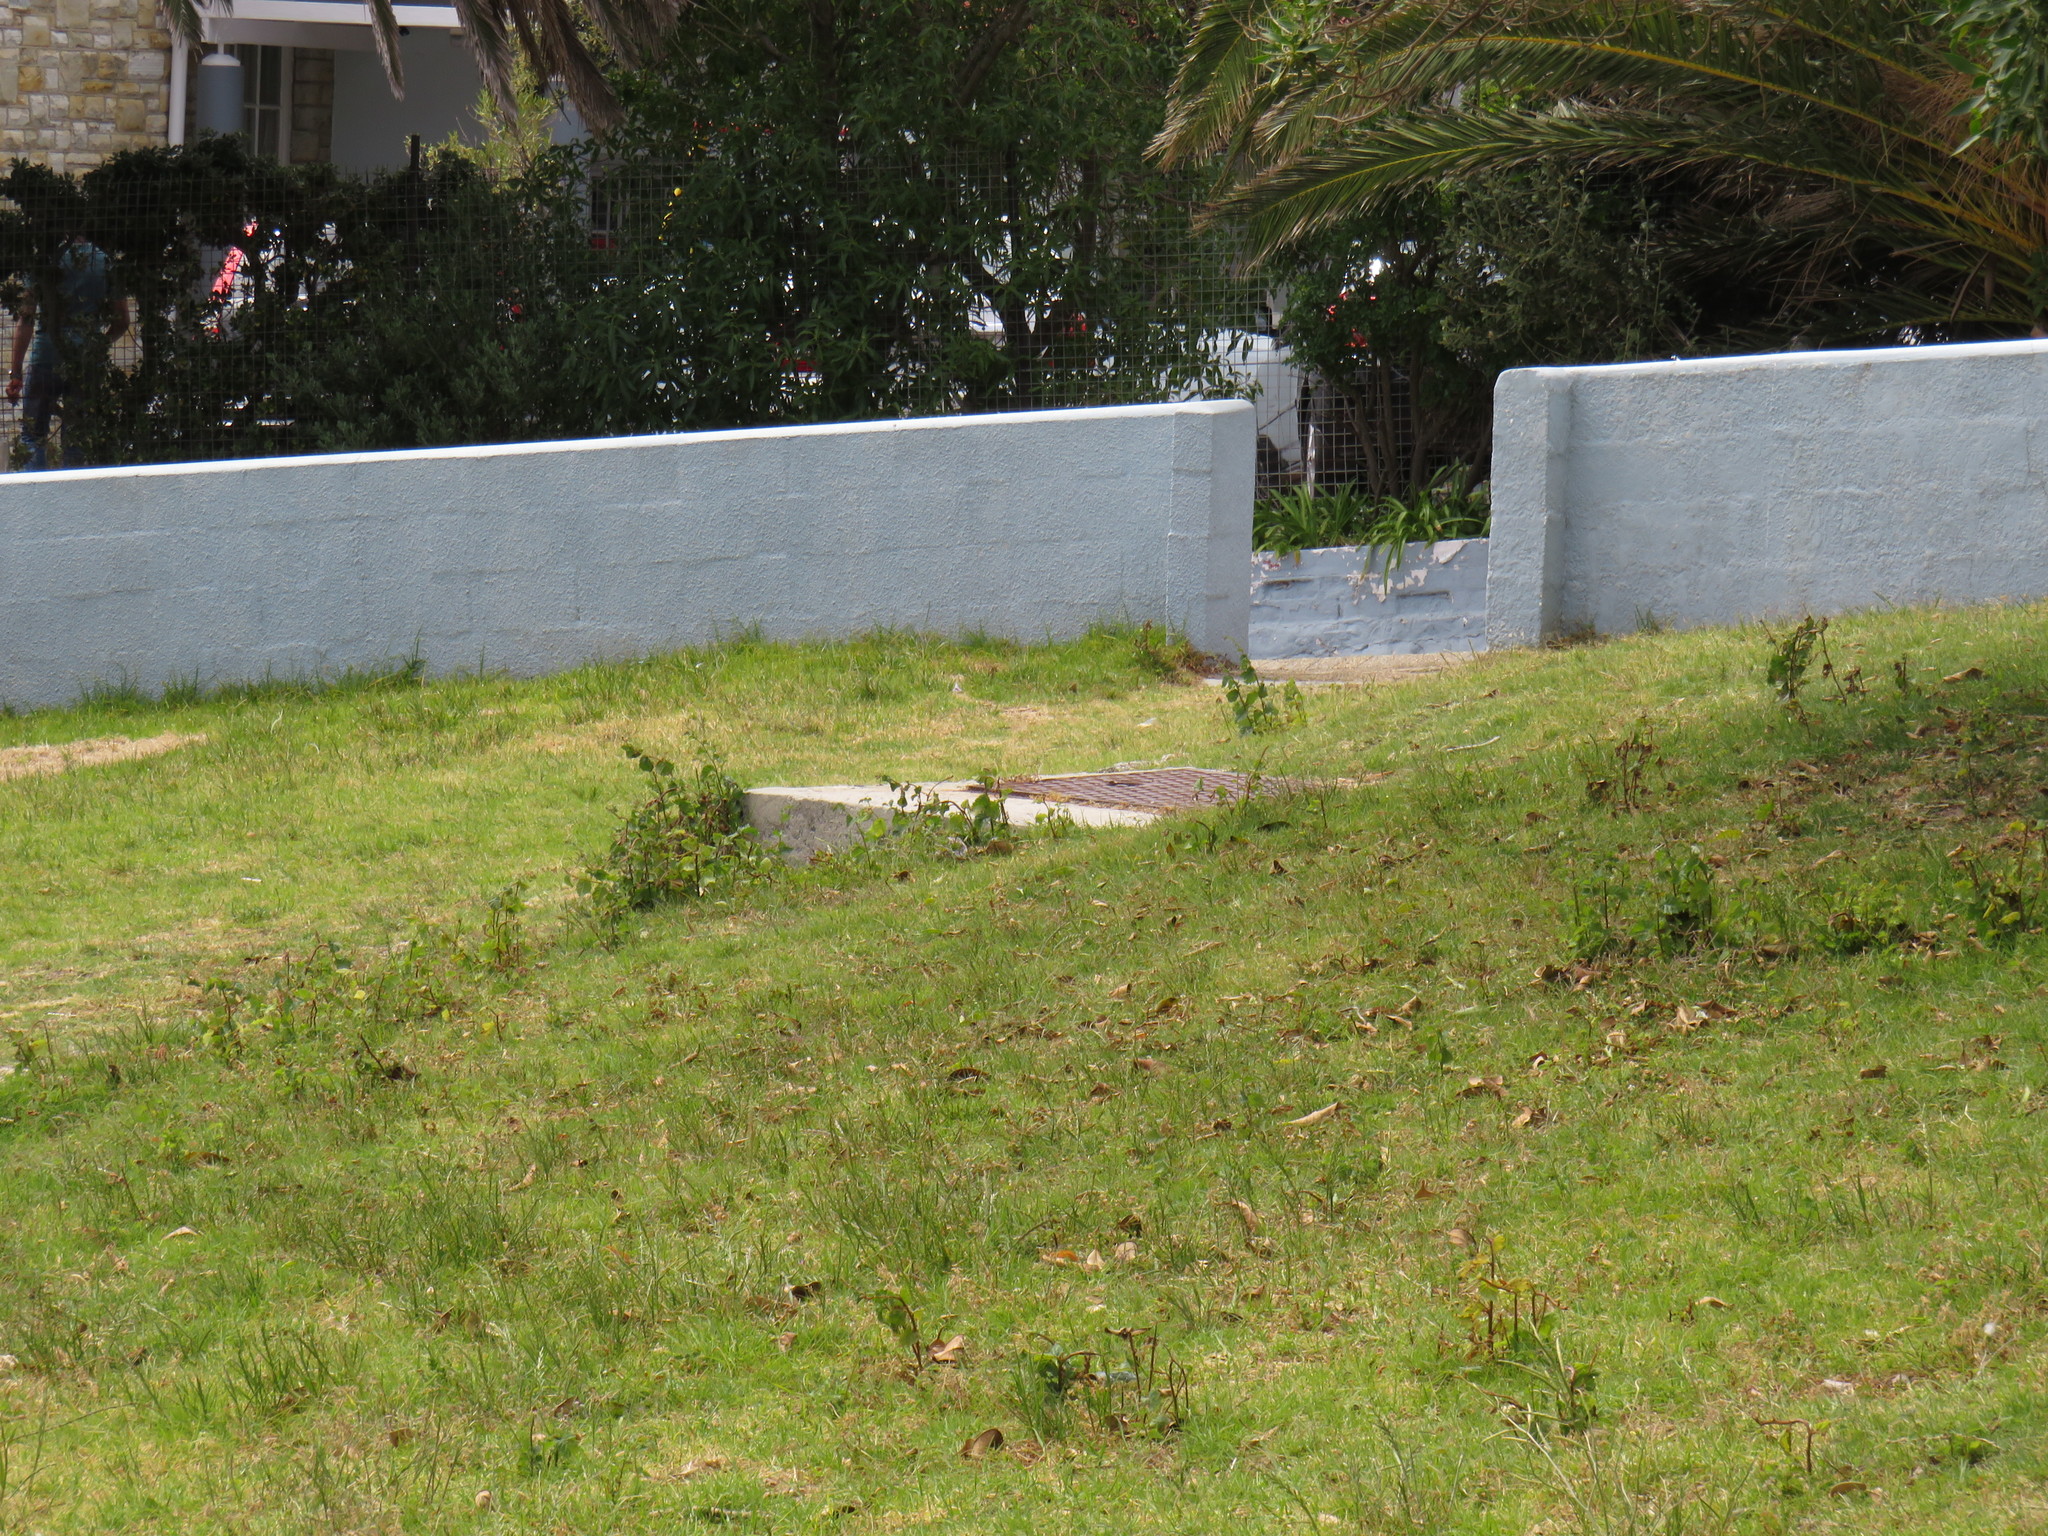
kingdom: Plantae
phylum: Tracheophyta
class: Magnoliopsida
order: Rosales
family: Ulmaceae
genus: Ulmus
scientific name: Ulmus minor
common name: Small-leaved elm
